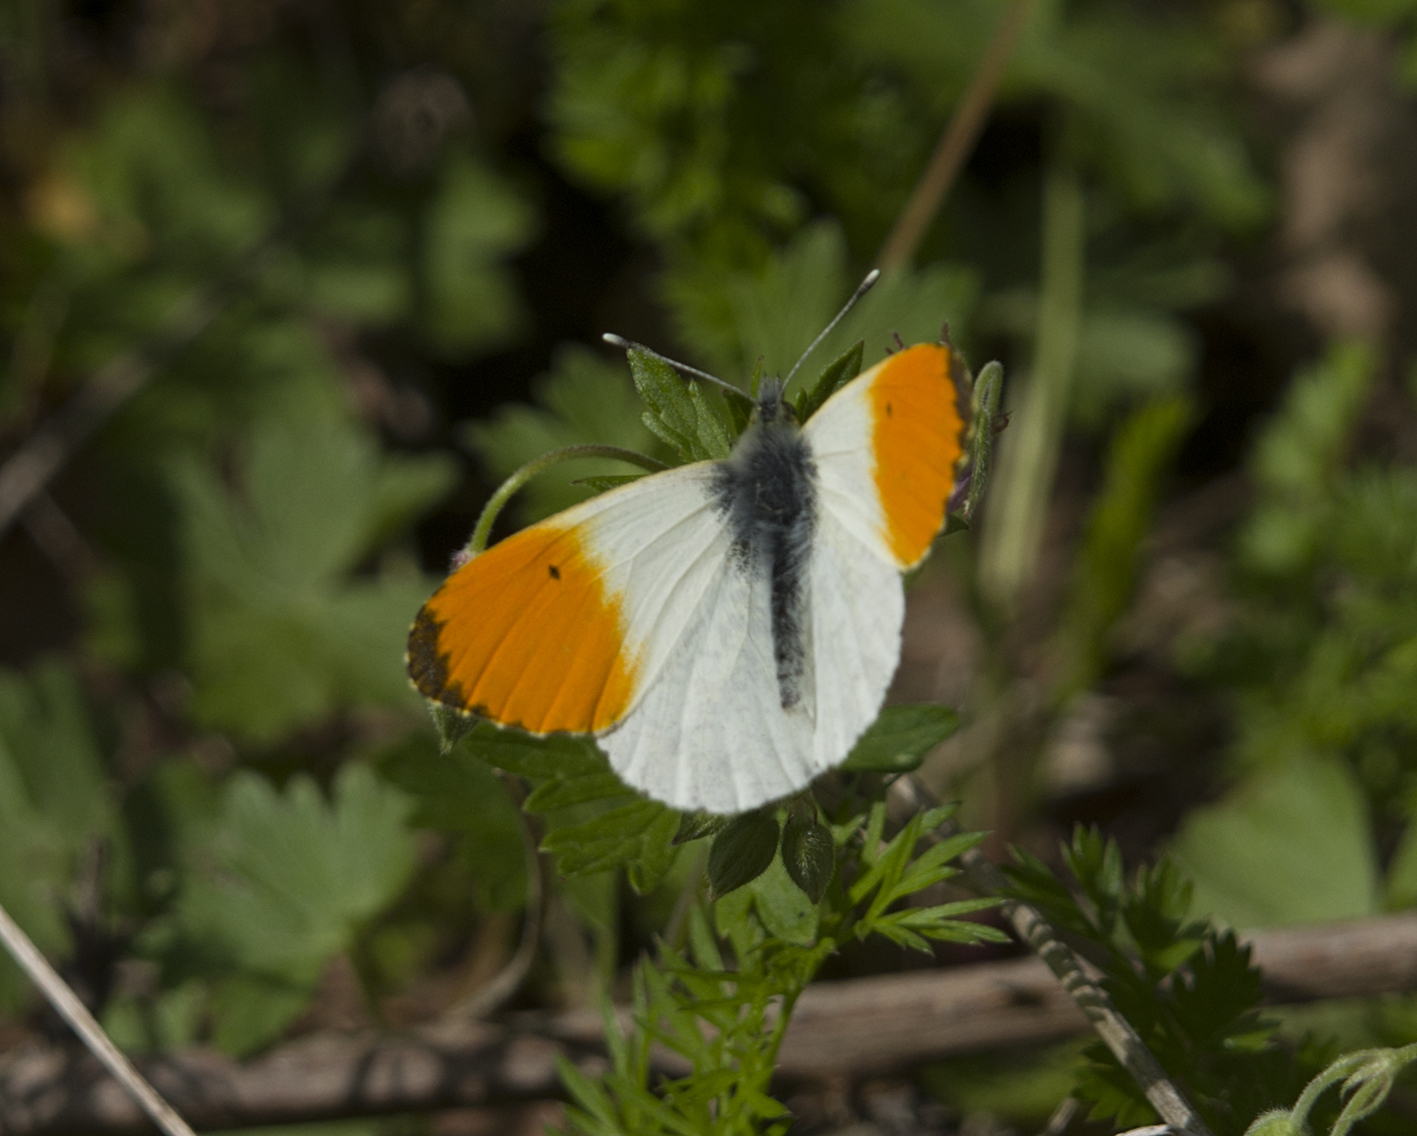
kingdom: Animalia
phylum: Arthropoda
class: Insecta
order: Lepidoptera
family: Pieridae
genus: Anthocharis
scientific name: Anthocharis cardamines
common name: Orange-tip
